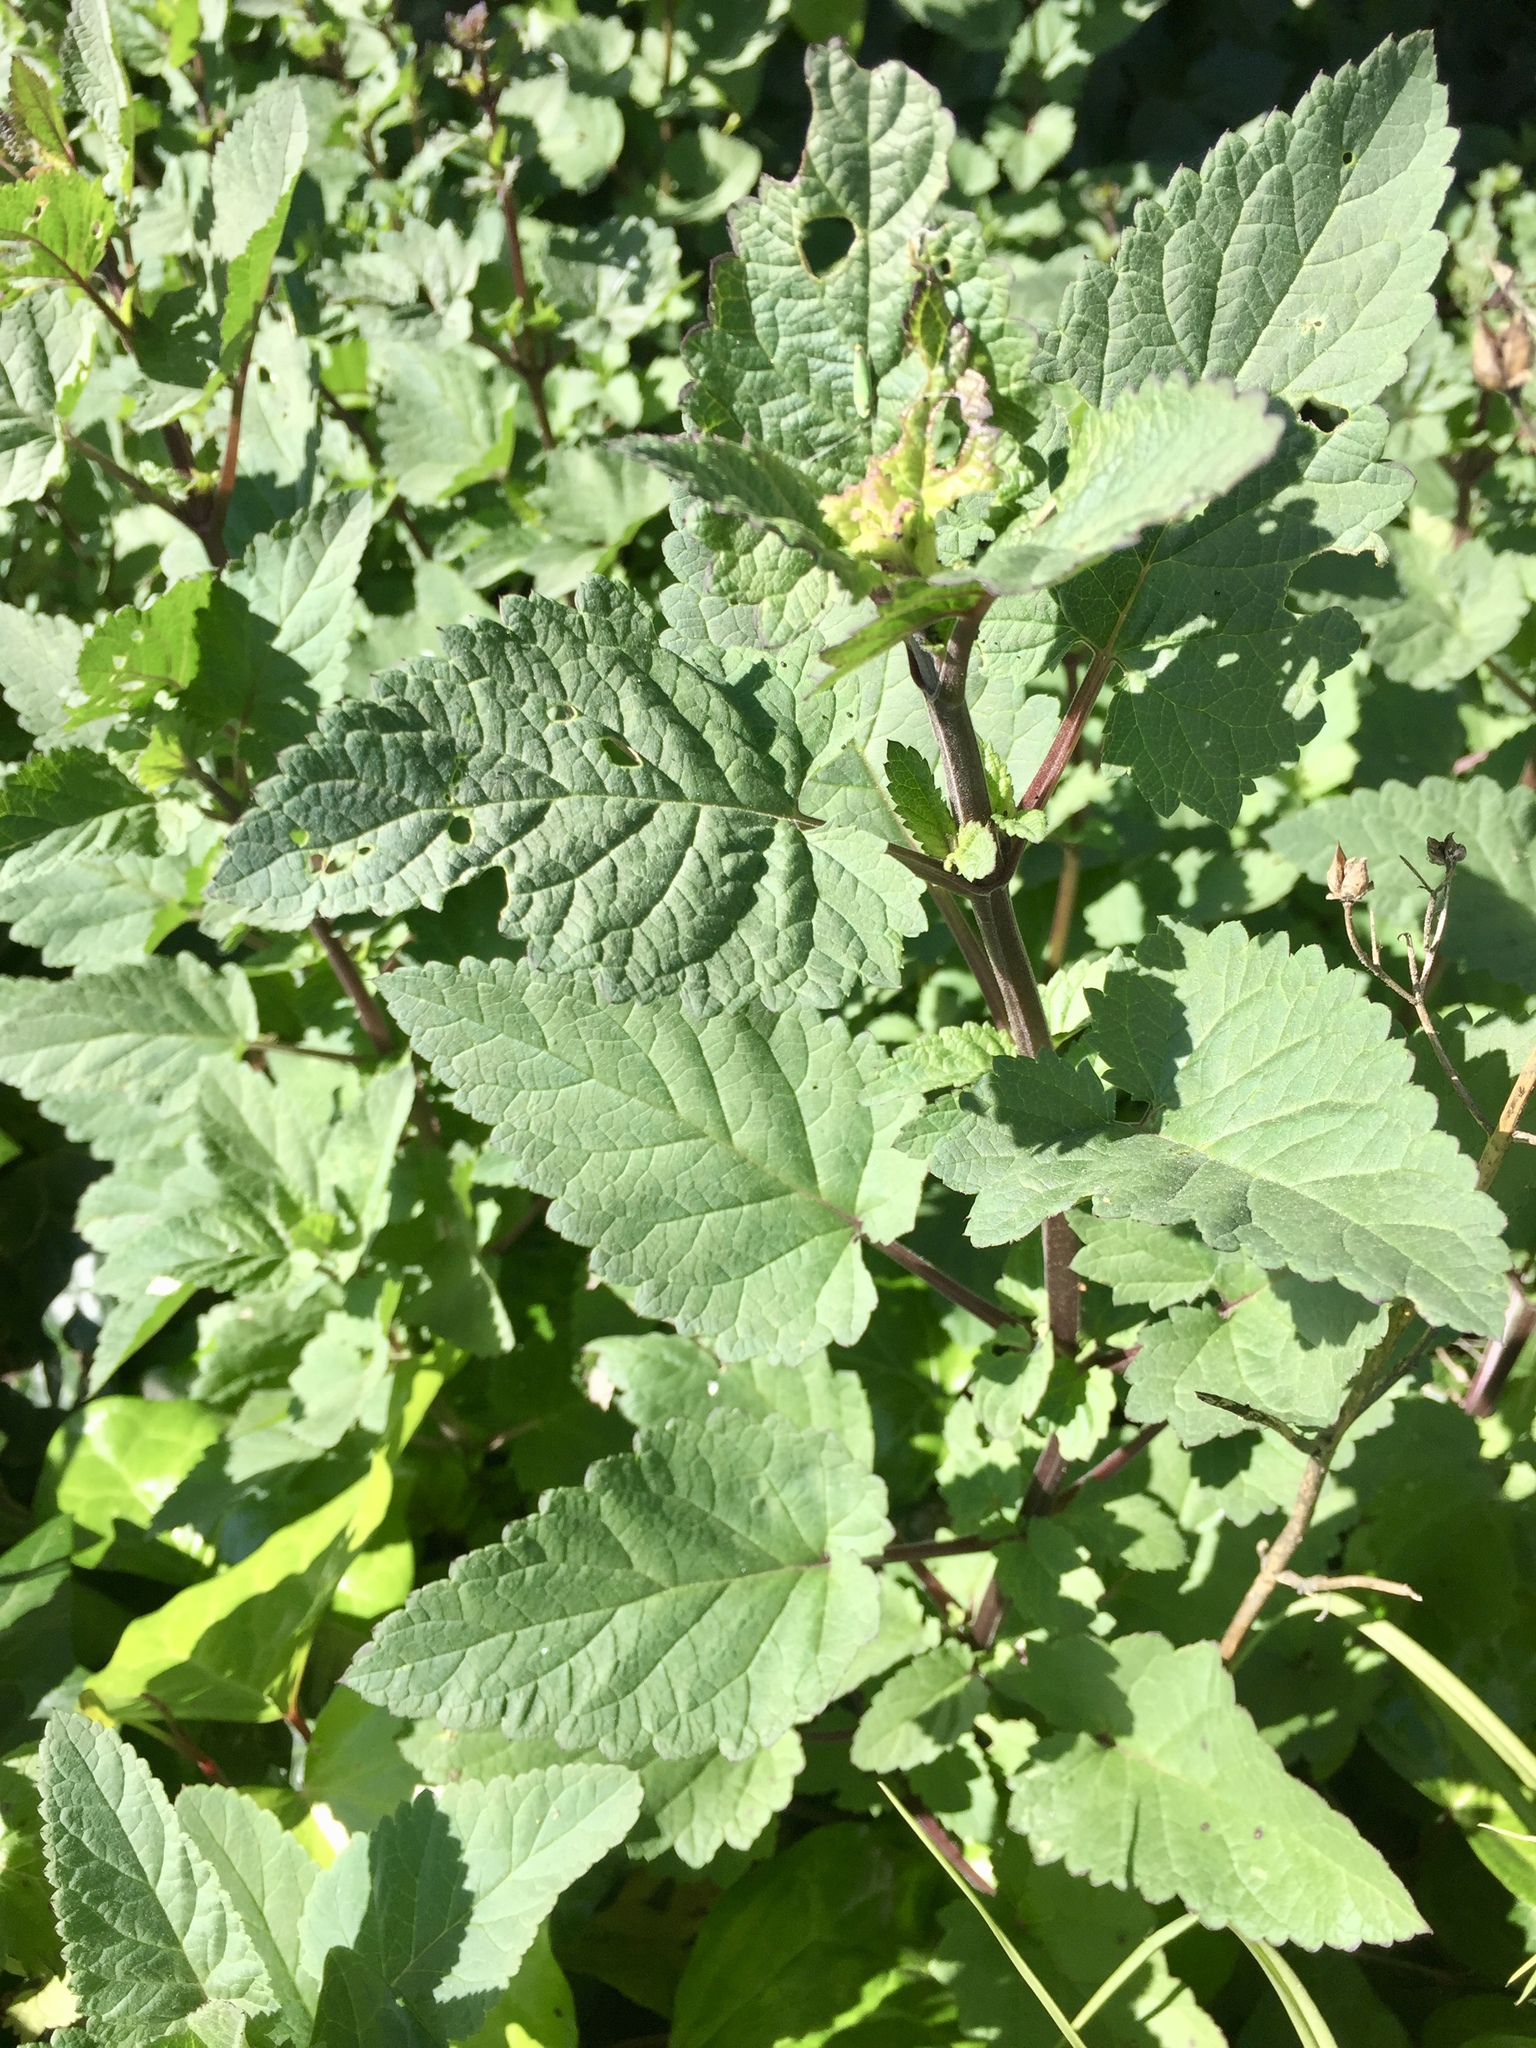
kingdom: Plantae
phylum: Tracheophyta
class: Magnoliopsida
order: Lamiales
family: Scrophulariaceae
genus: Scrophularia
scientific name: Scrophularia californica
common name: California figwort
